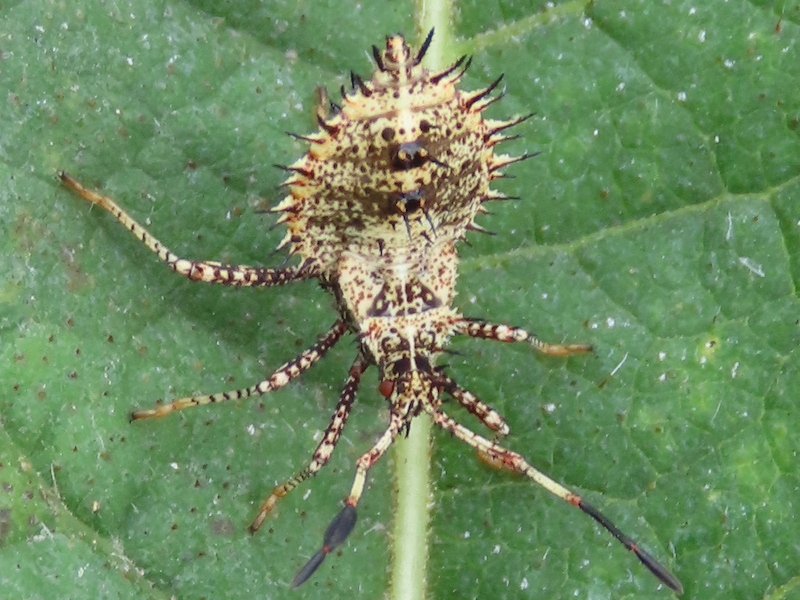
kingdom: Animalia
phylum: Arthropoda
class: Insecta
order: Hemiptera
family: Coreidae
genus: Euthochtha
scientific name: Euthochtha galeator
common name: Helmeted squash bug
